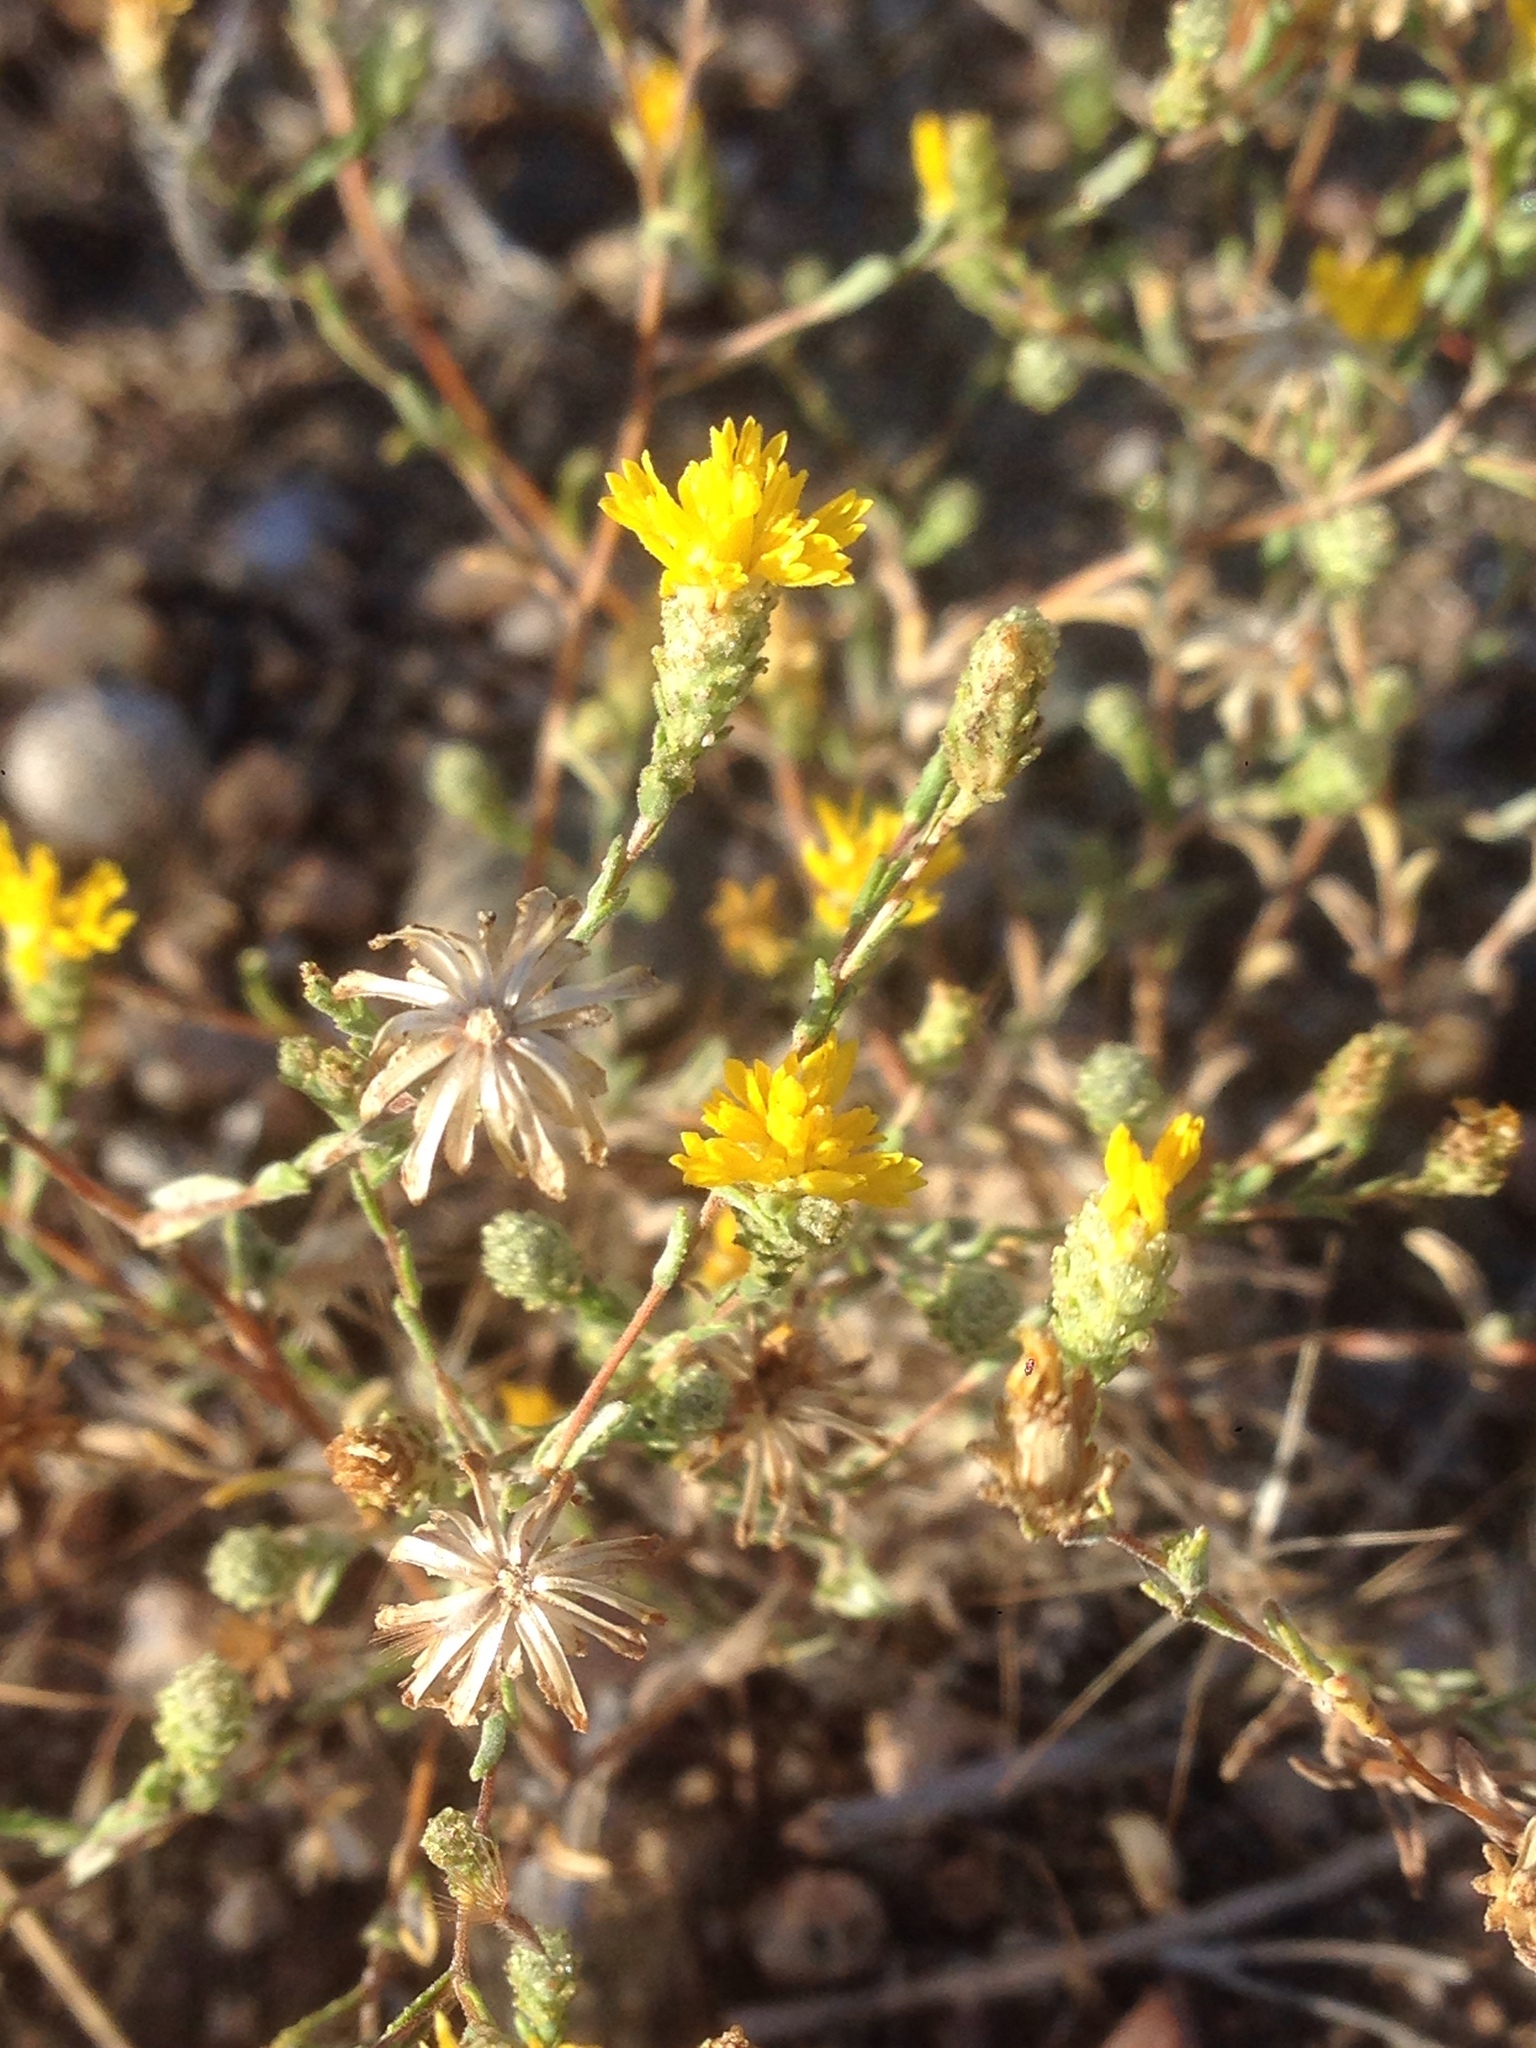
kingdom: Plantae
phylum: Tracheophyta
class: Magnoliopsida
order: Asterales
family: Asteraceae
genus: Lessingia
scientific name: Lessingia glandulifera
